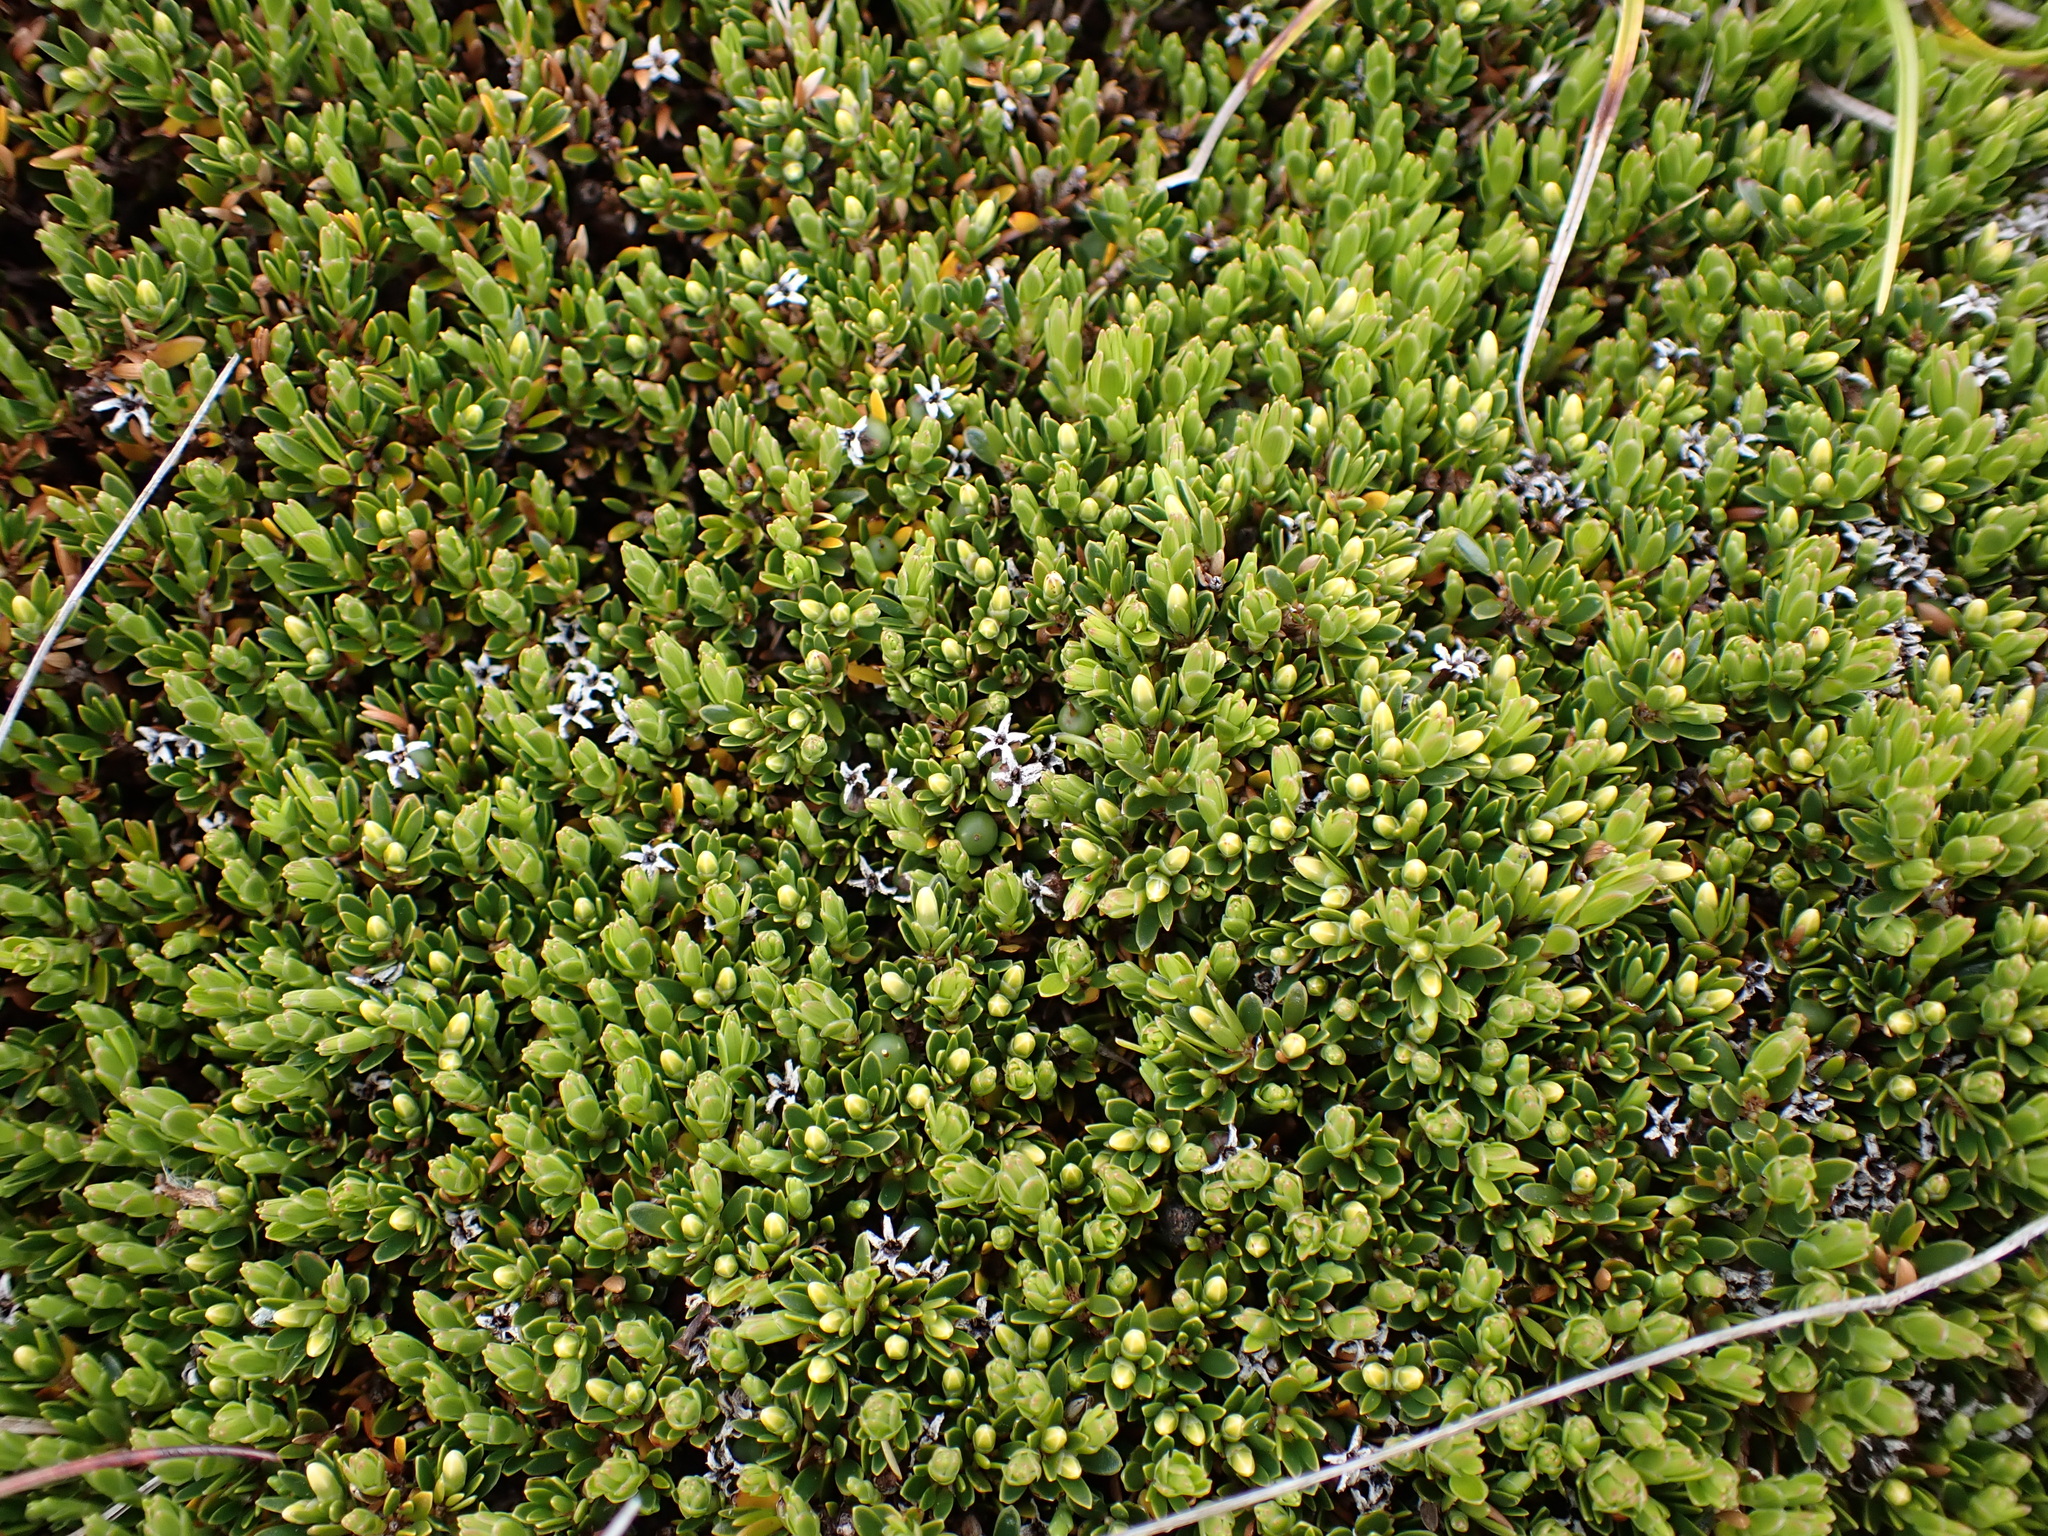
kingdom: Plantae
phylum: Tracheophyta
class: Magnoliopsida
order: Ericales
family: Ericaceae
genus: Pentachondra
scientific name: Pentachondra pumila
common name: Carpet-heath
